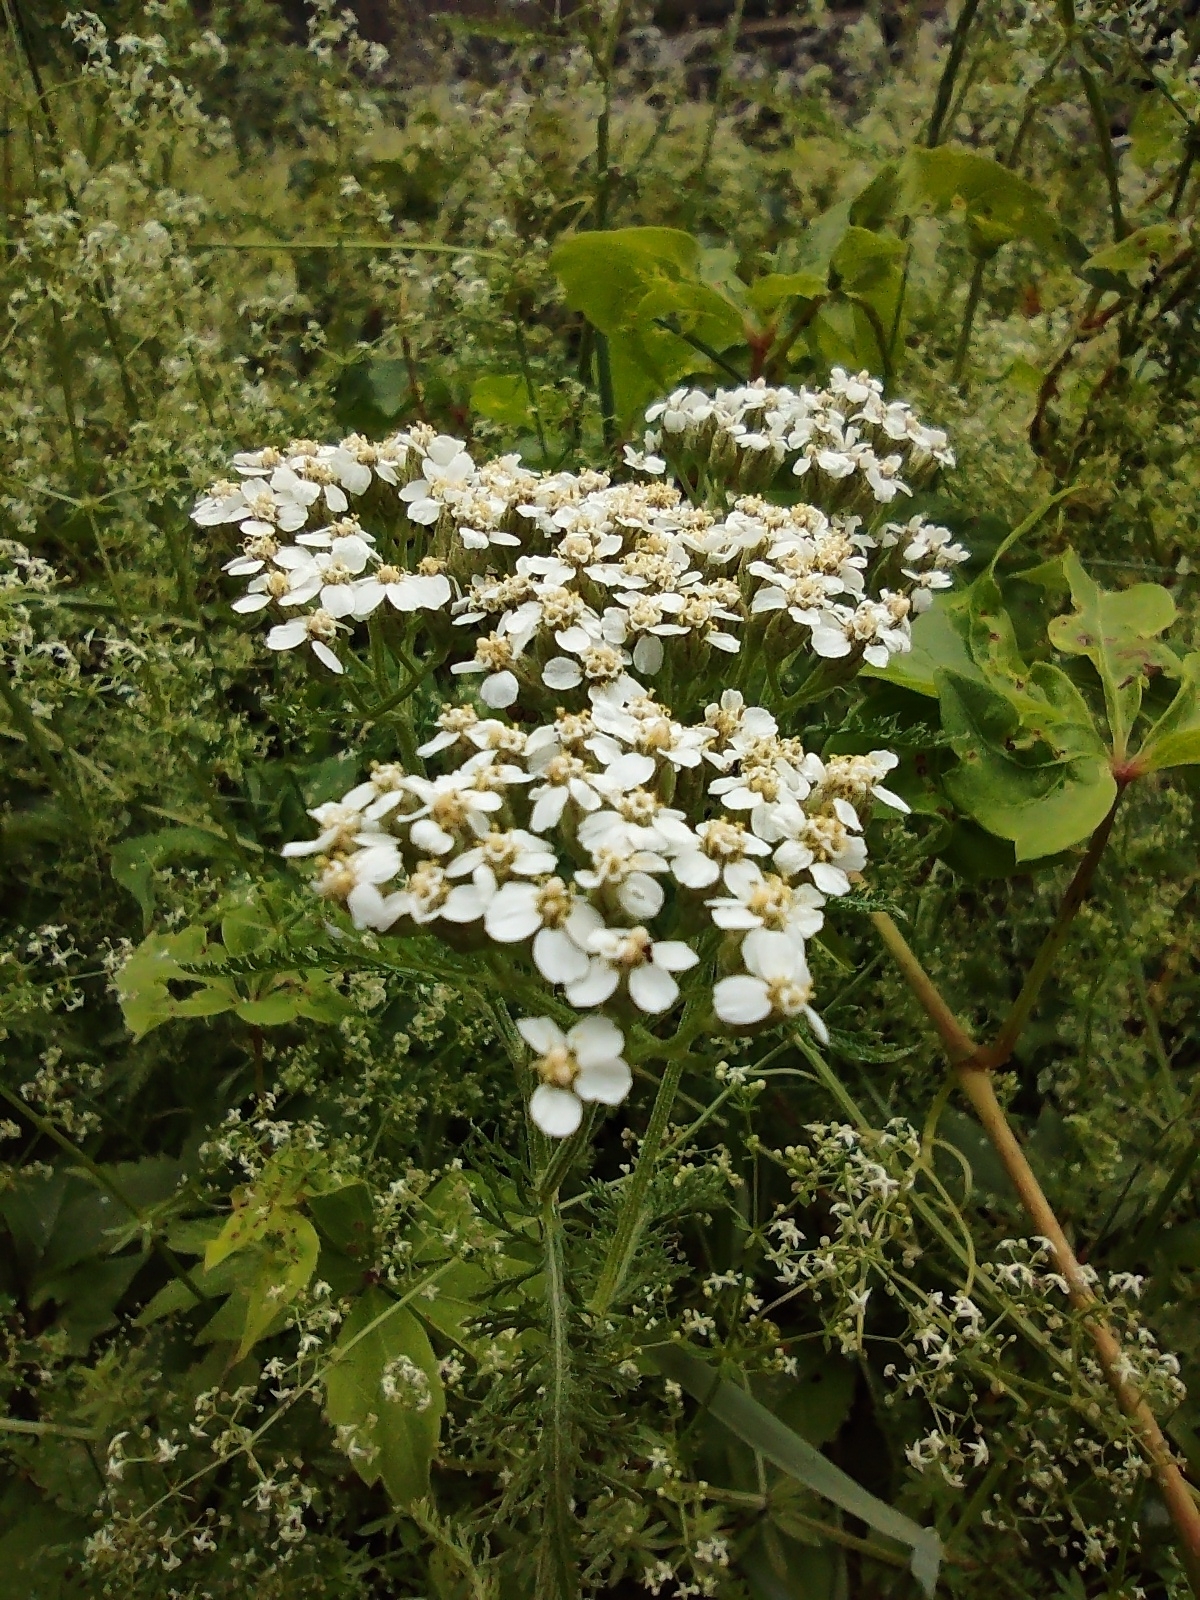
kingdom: Plantae
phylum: Tracheophyta
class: Magnoliopsida
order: Asterales
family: Asteraceae
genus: Achillea
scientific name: Achillea millefolium
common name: Yarrow
